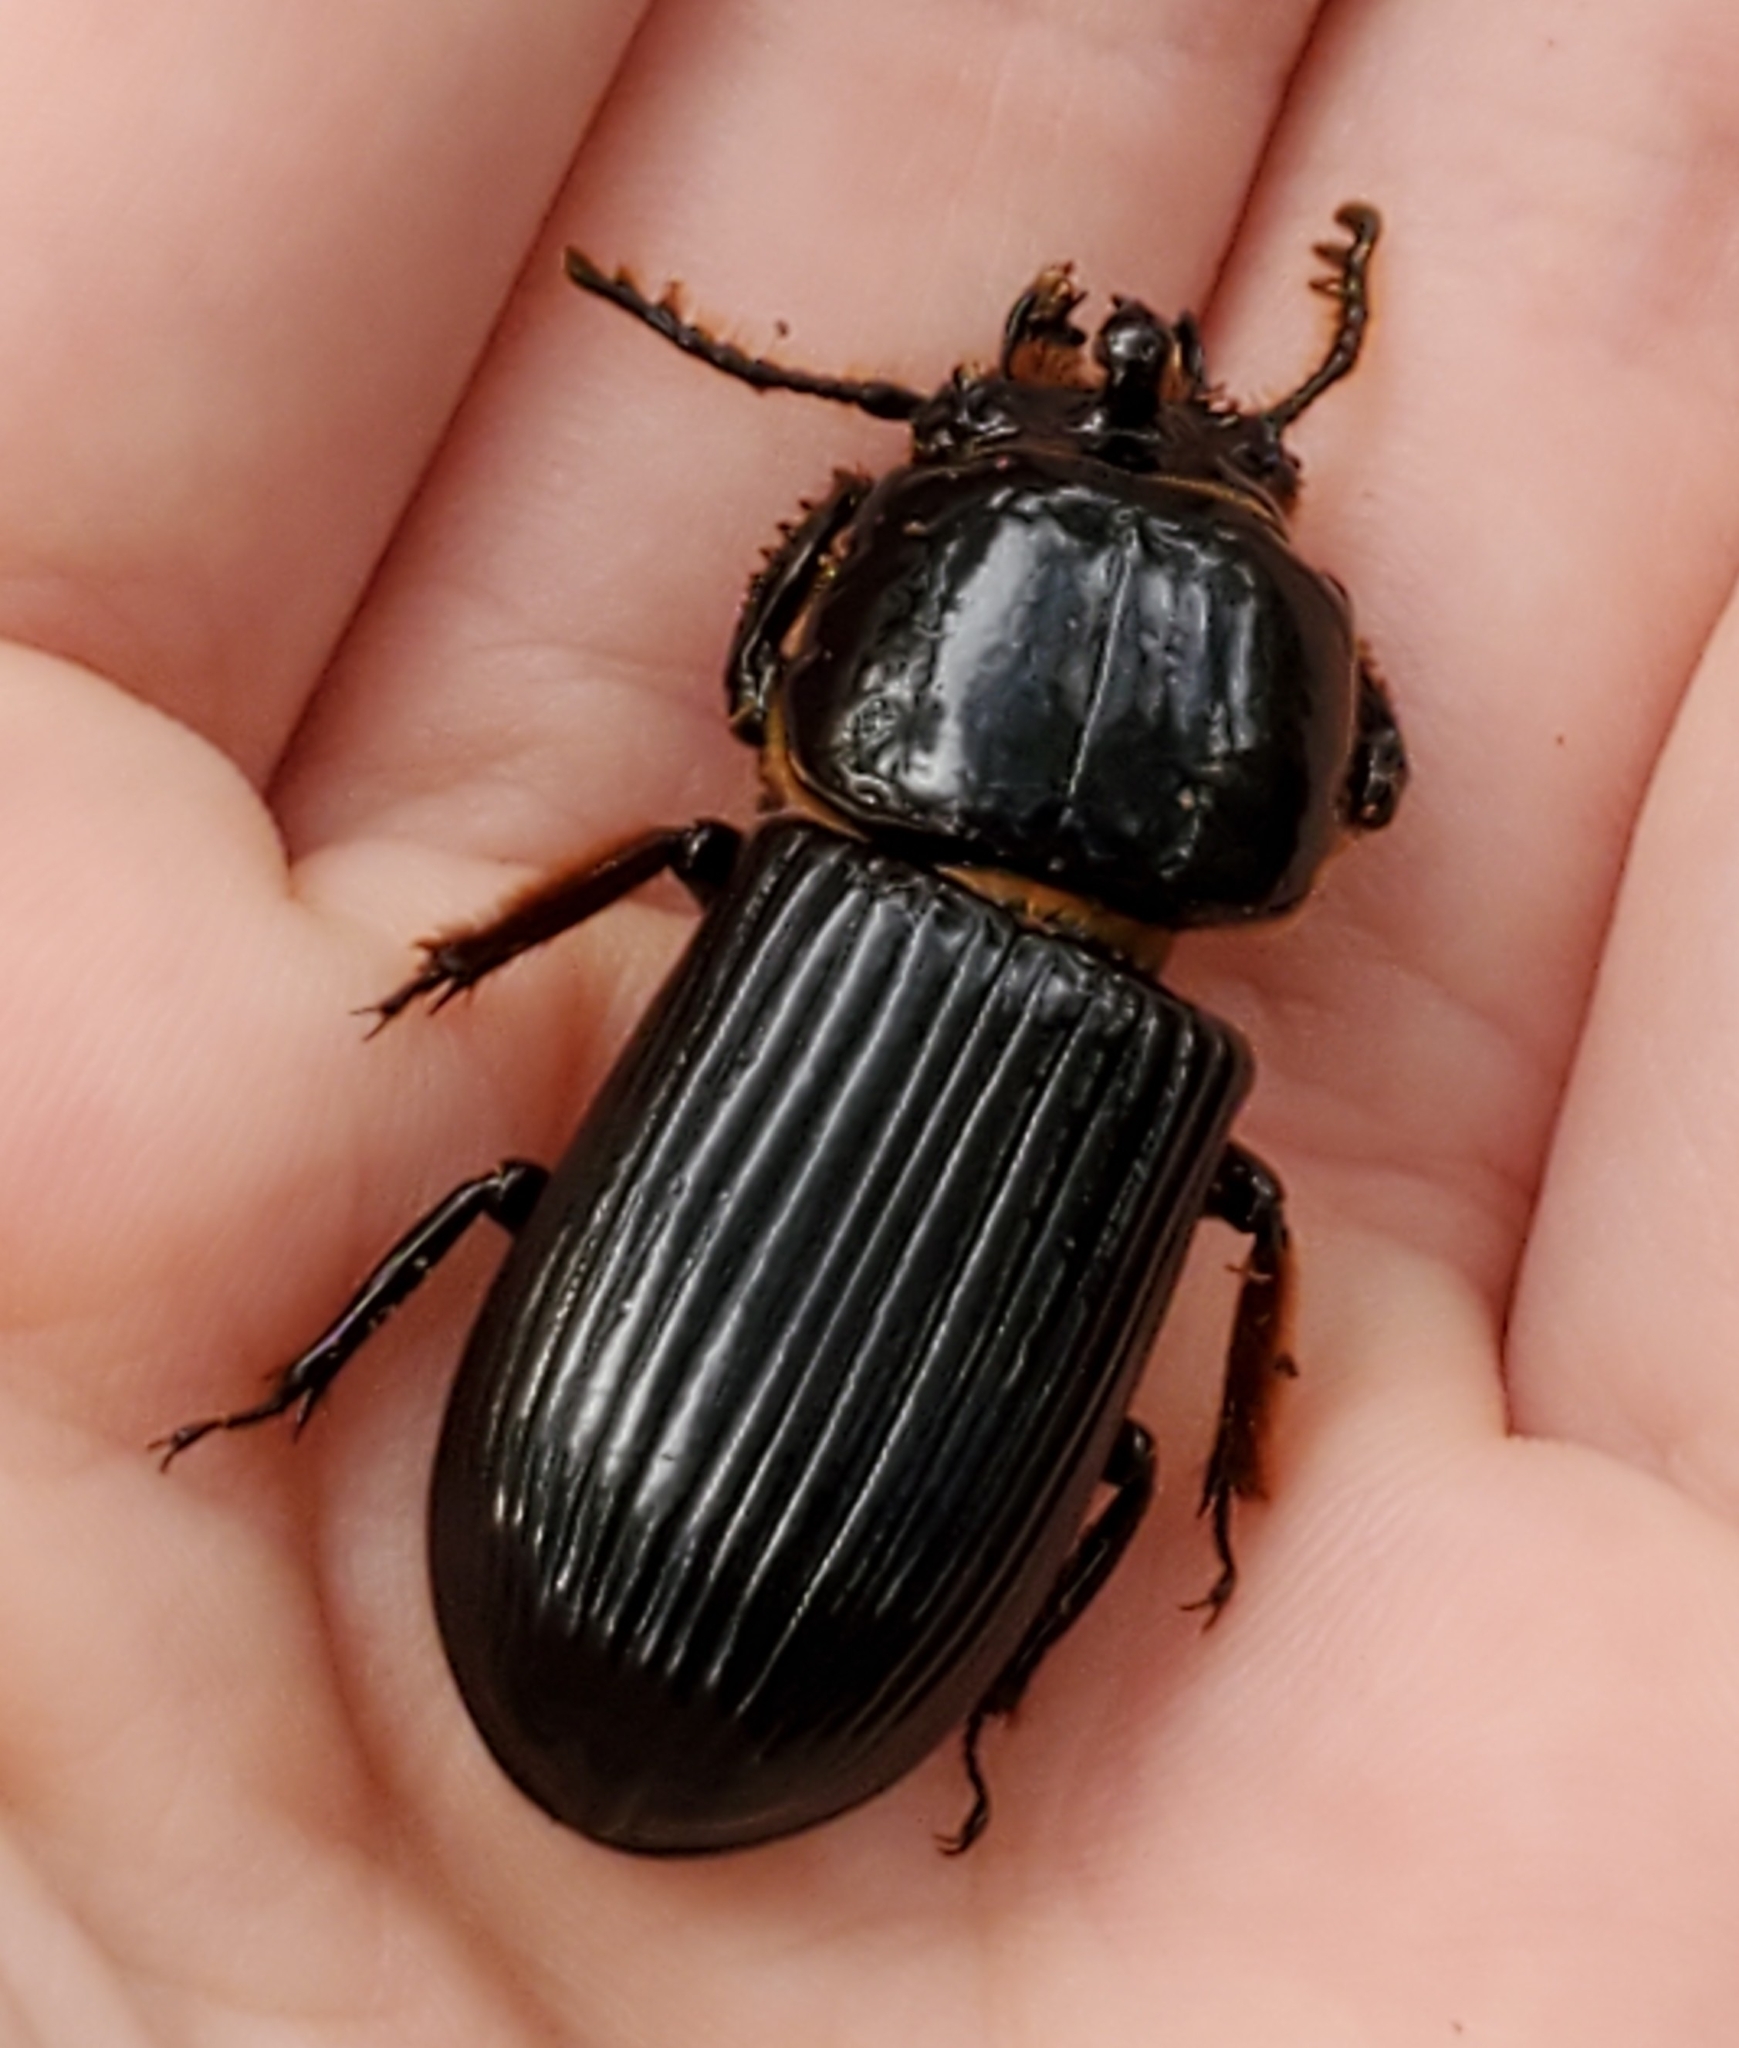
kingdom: Animalia
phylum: Arthropoda
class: Insecta
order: Coleoptera
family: Passalidae
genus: Odontotaenius
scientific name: Odontotaenius disjunctus
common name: Patent leather beetle
